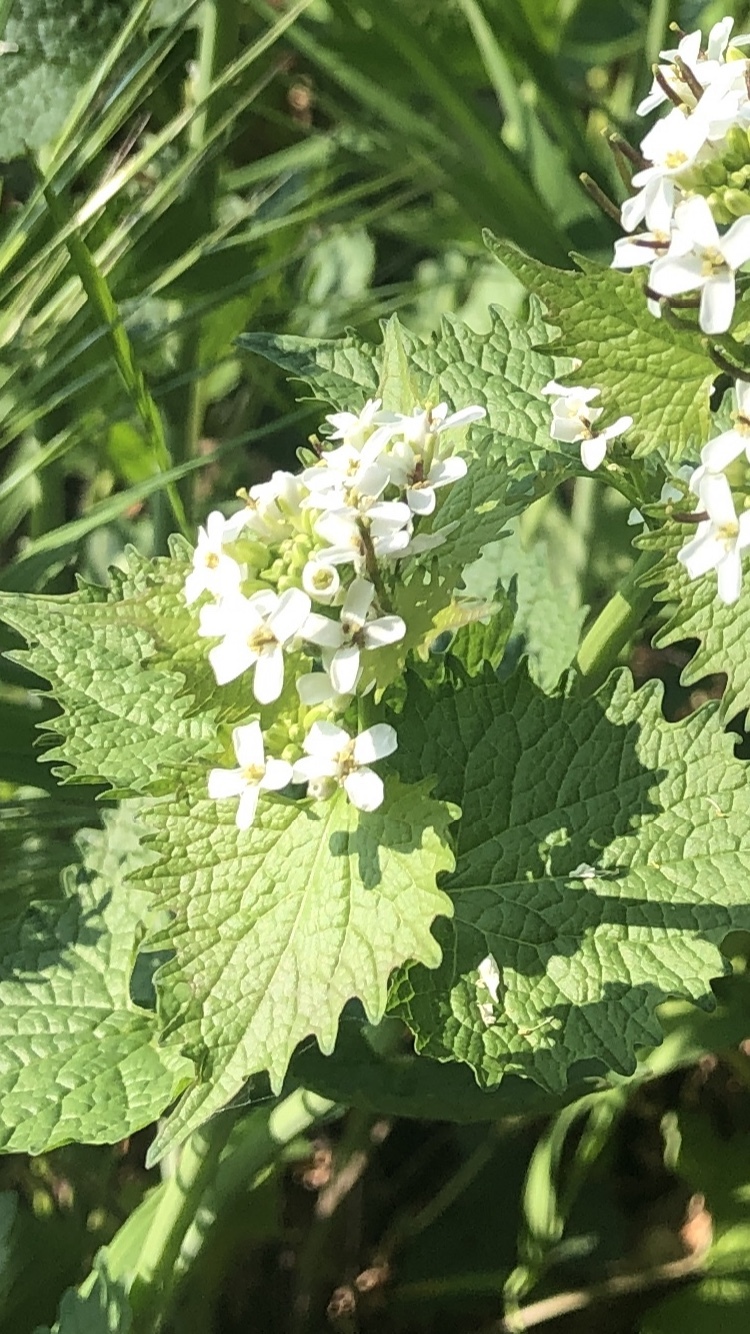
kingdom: Plantae
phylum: Tracheophyta
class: Magnoliopsida
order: Brassicales
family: Brassicaceae
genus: Alliaria
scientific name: Alliaria petiolata
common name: Garlic mustard
